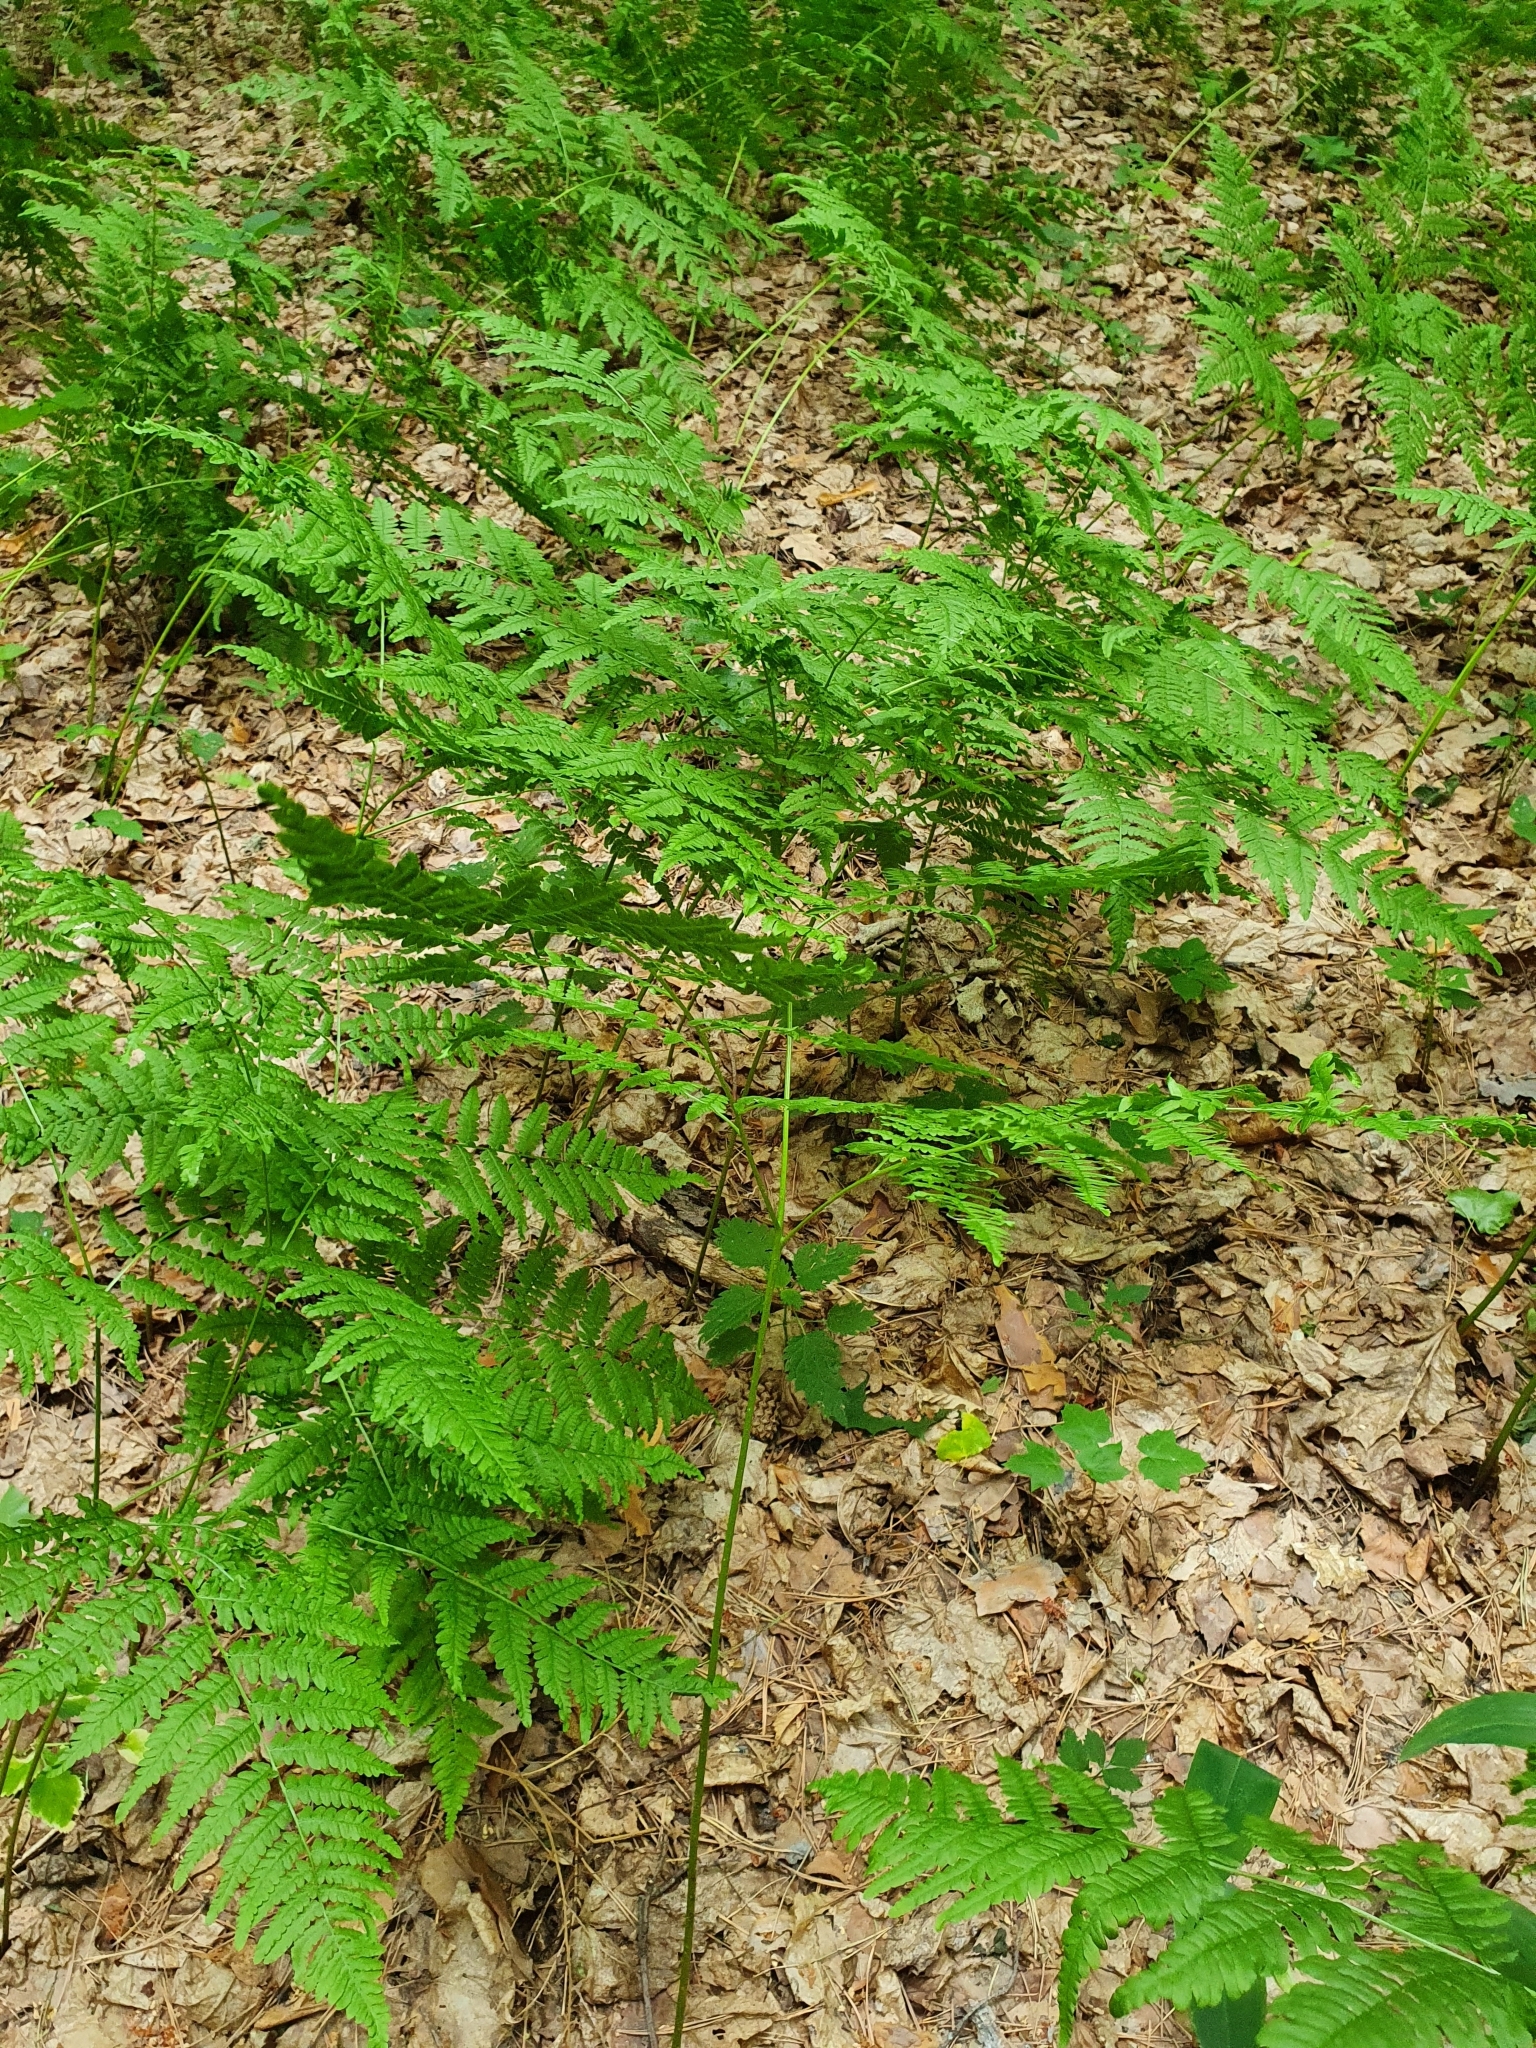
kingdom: Plantae
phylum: Tracheophyta
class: Polypodiopsida
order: Polypodiales
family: Dennstaedtiaceae
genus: Pteridium
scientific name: Pteridium aquilinum
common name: Bracken
